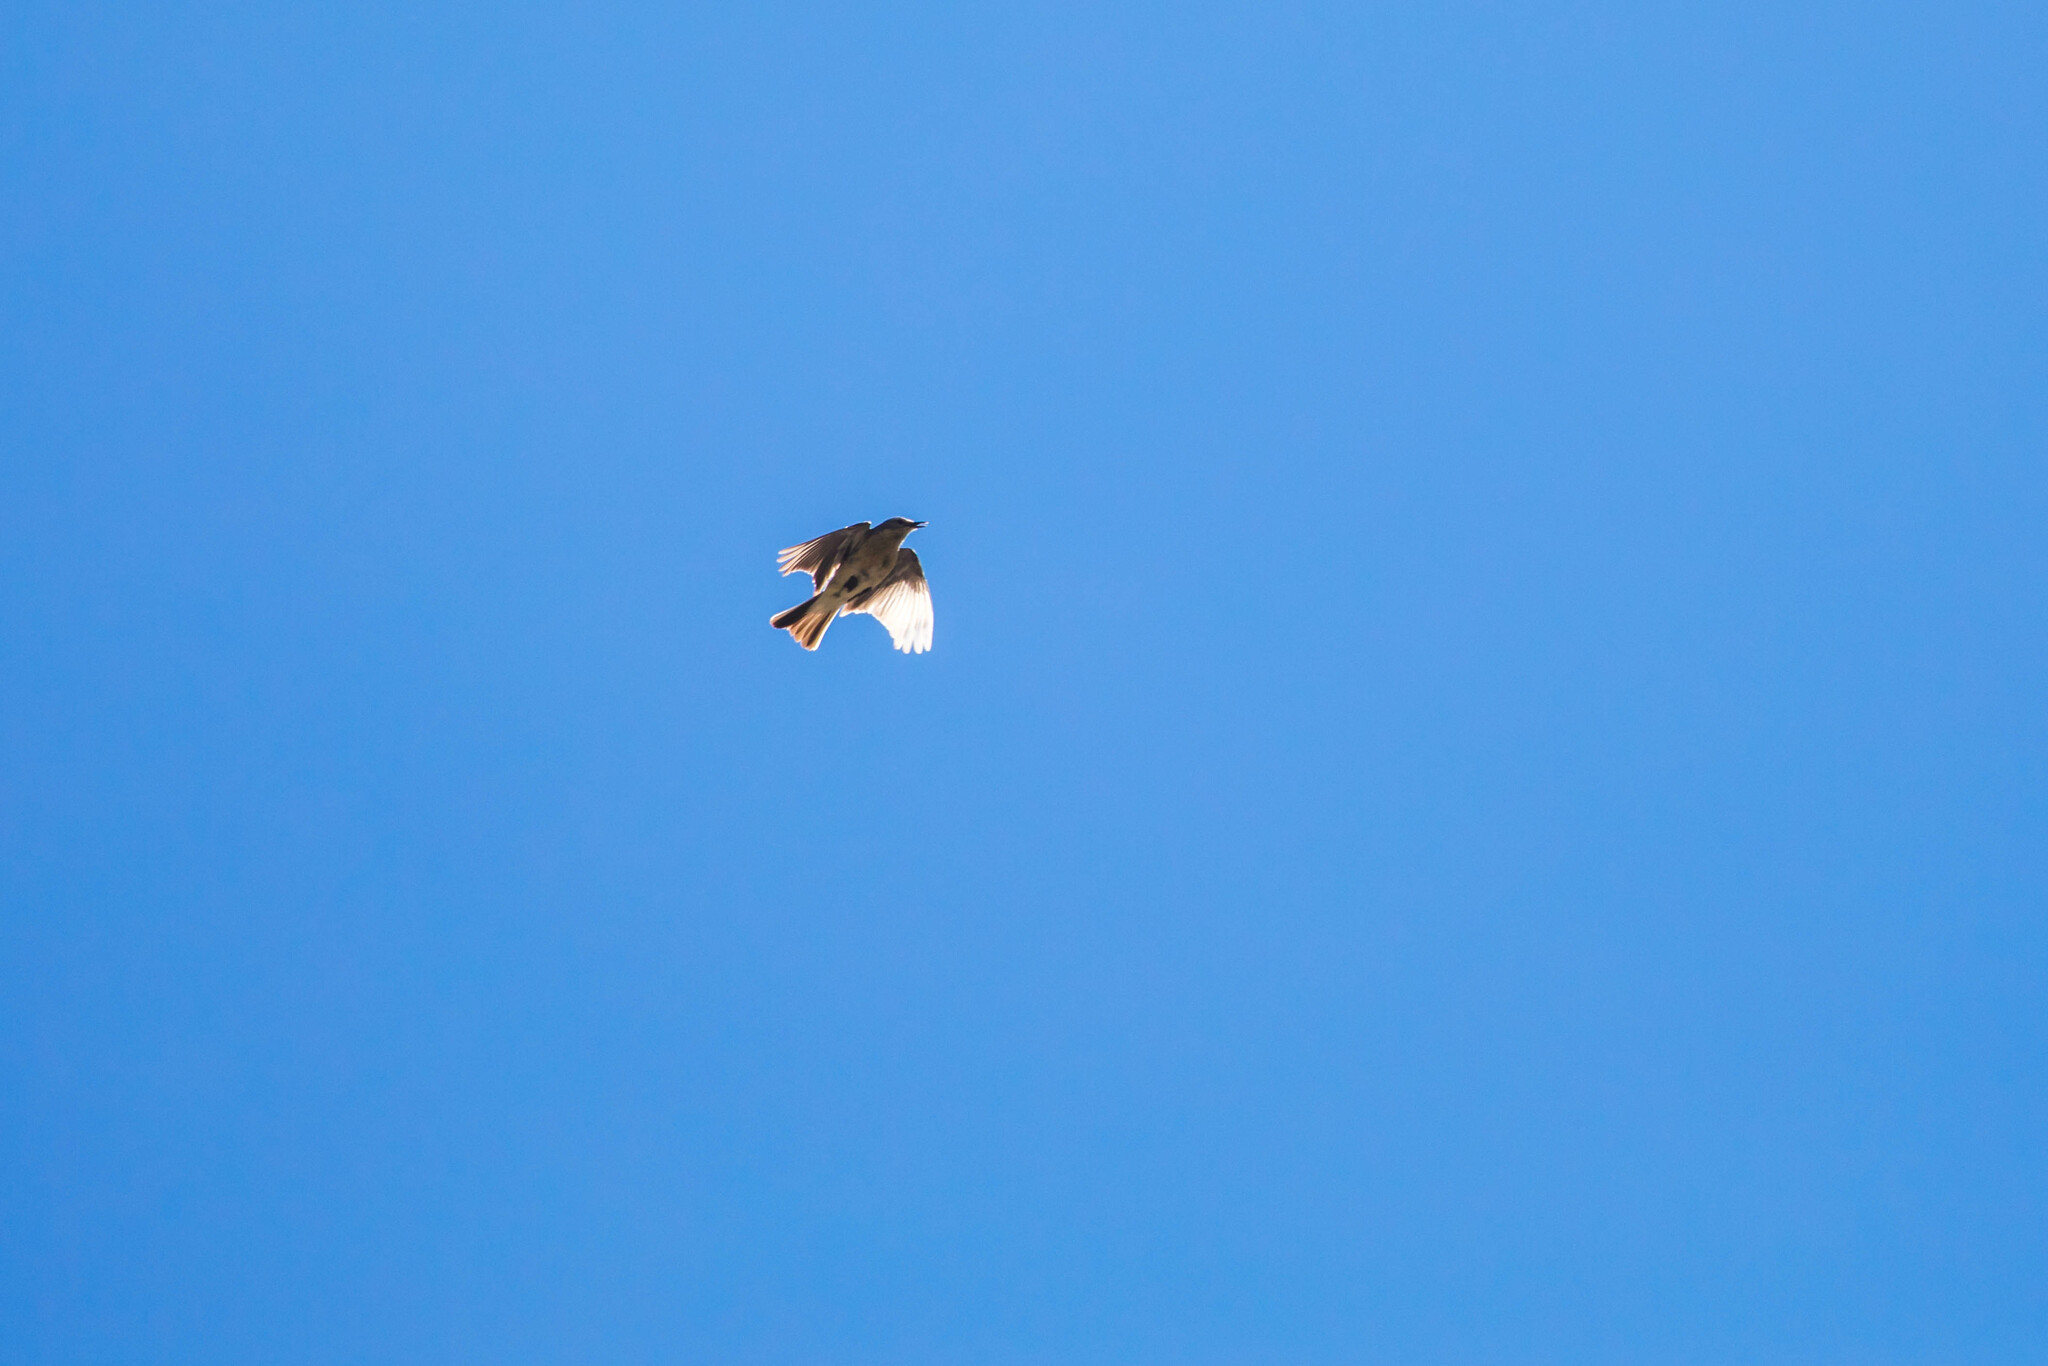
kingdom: Animalia
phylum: Chordata
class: Aves
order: Passeriformes
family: Motacillidae
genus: Anthus
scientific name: Anthus spinoletta
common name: Water pipit
